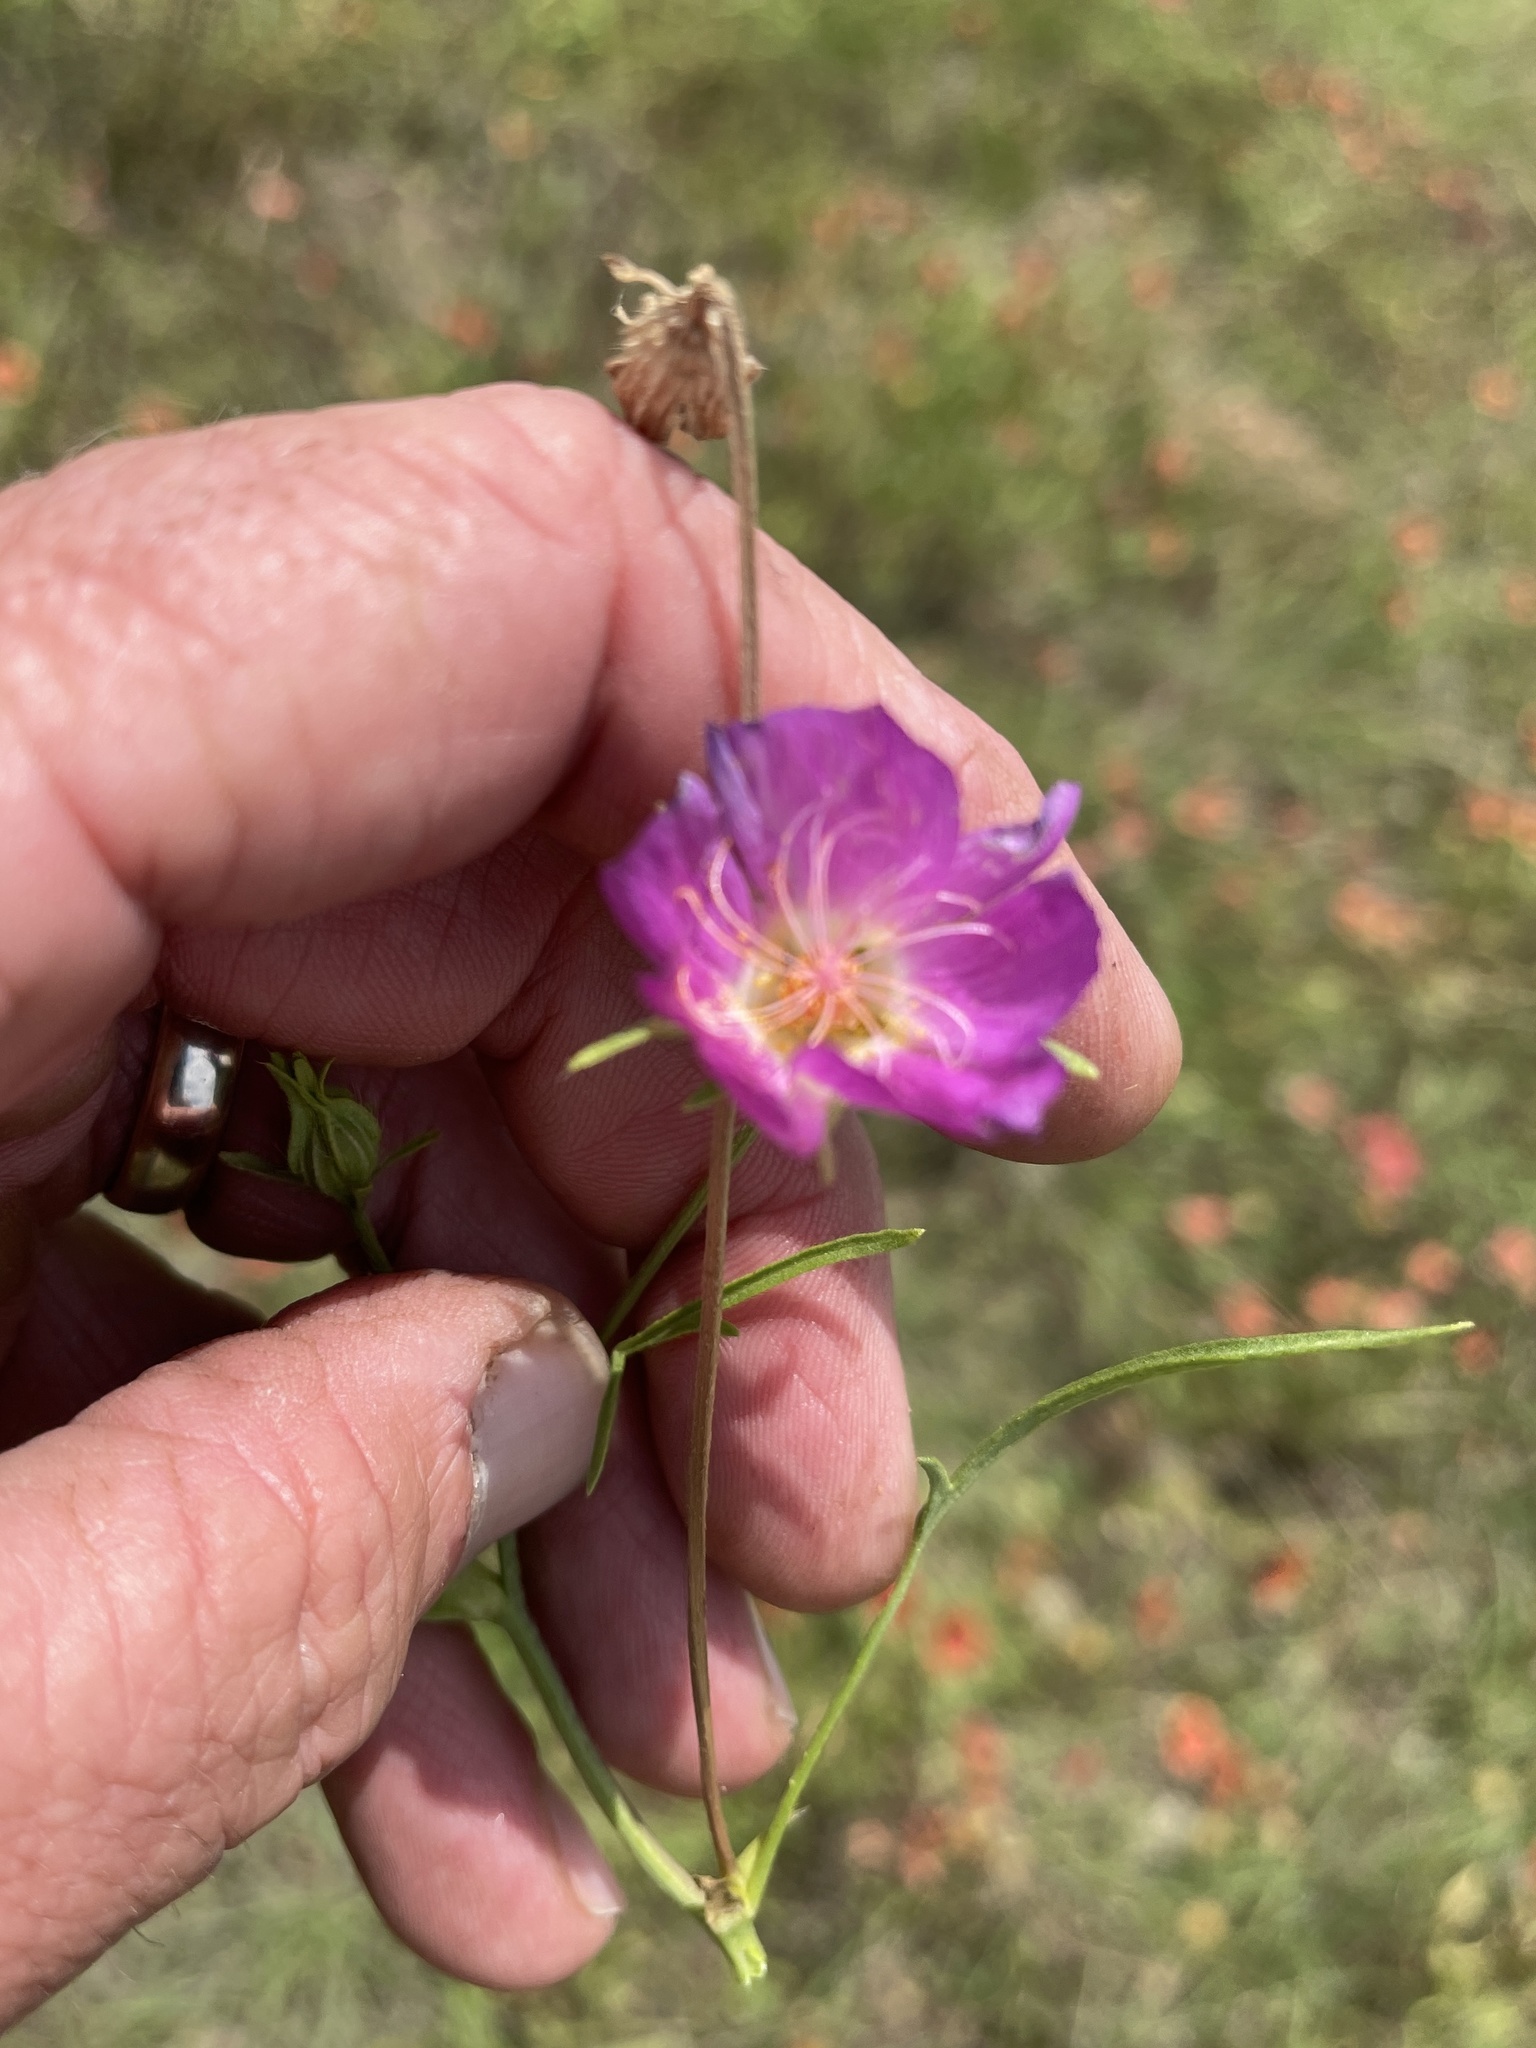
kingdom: Plantae
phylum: Tracheophyta
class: Magnoliopsida
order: Malvales
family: Malvaceae
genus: Callirhoe
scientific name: Callirhoe involucrata
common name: Purple poppy-mallow
